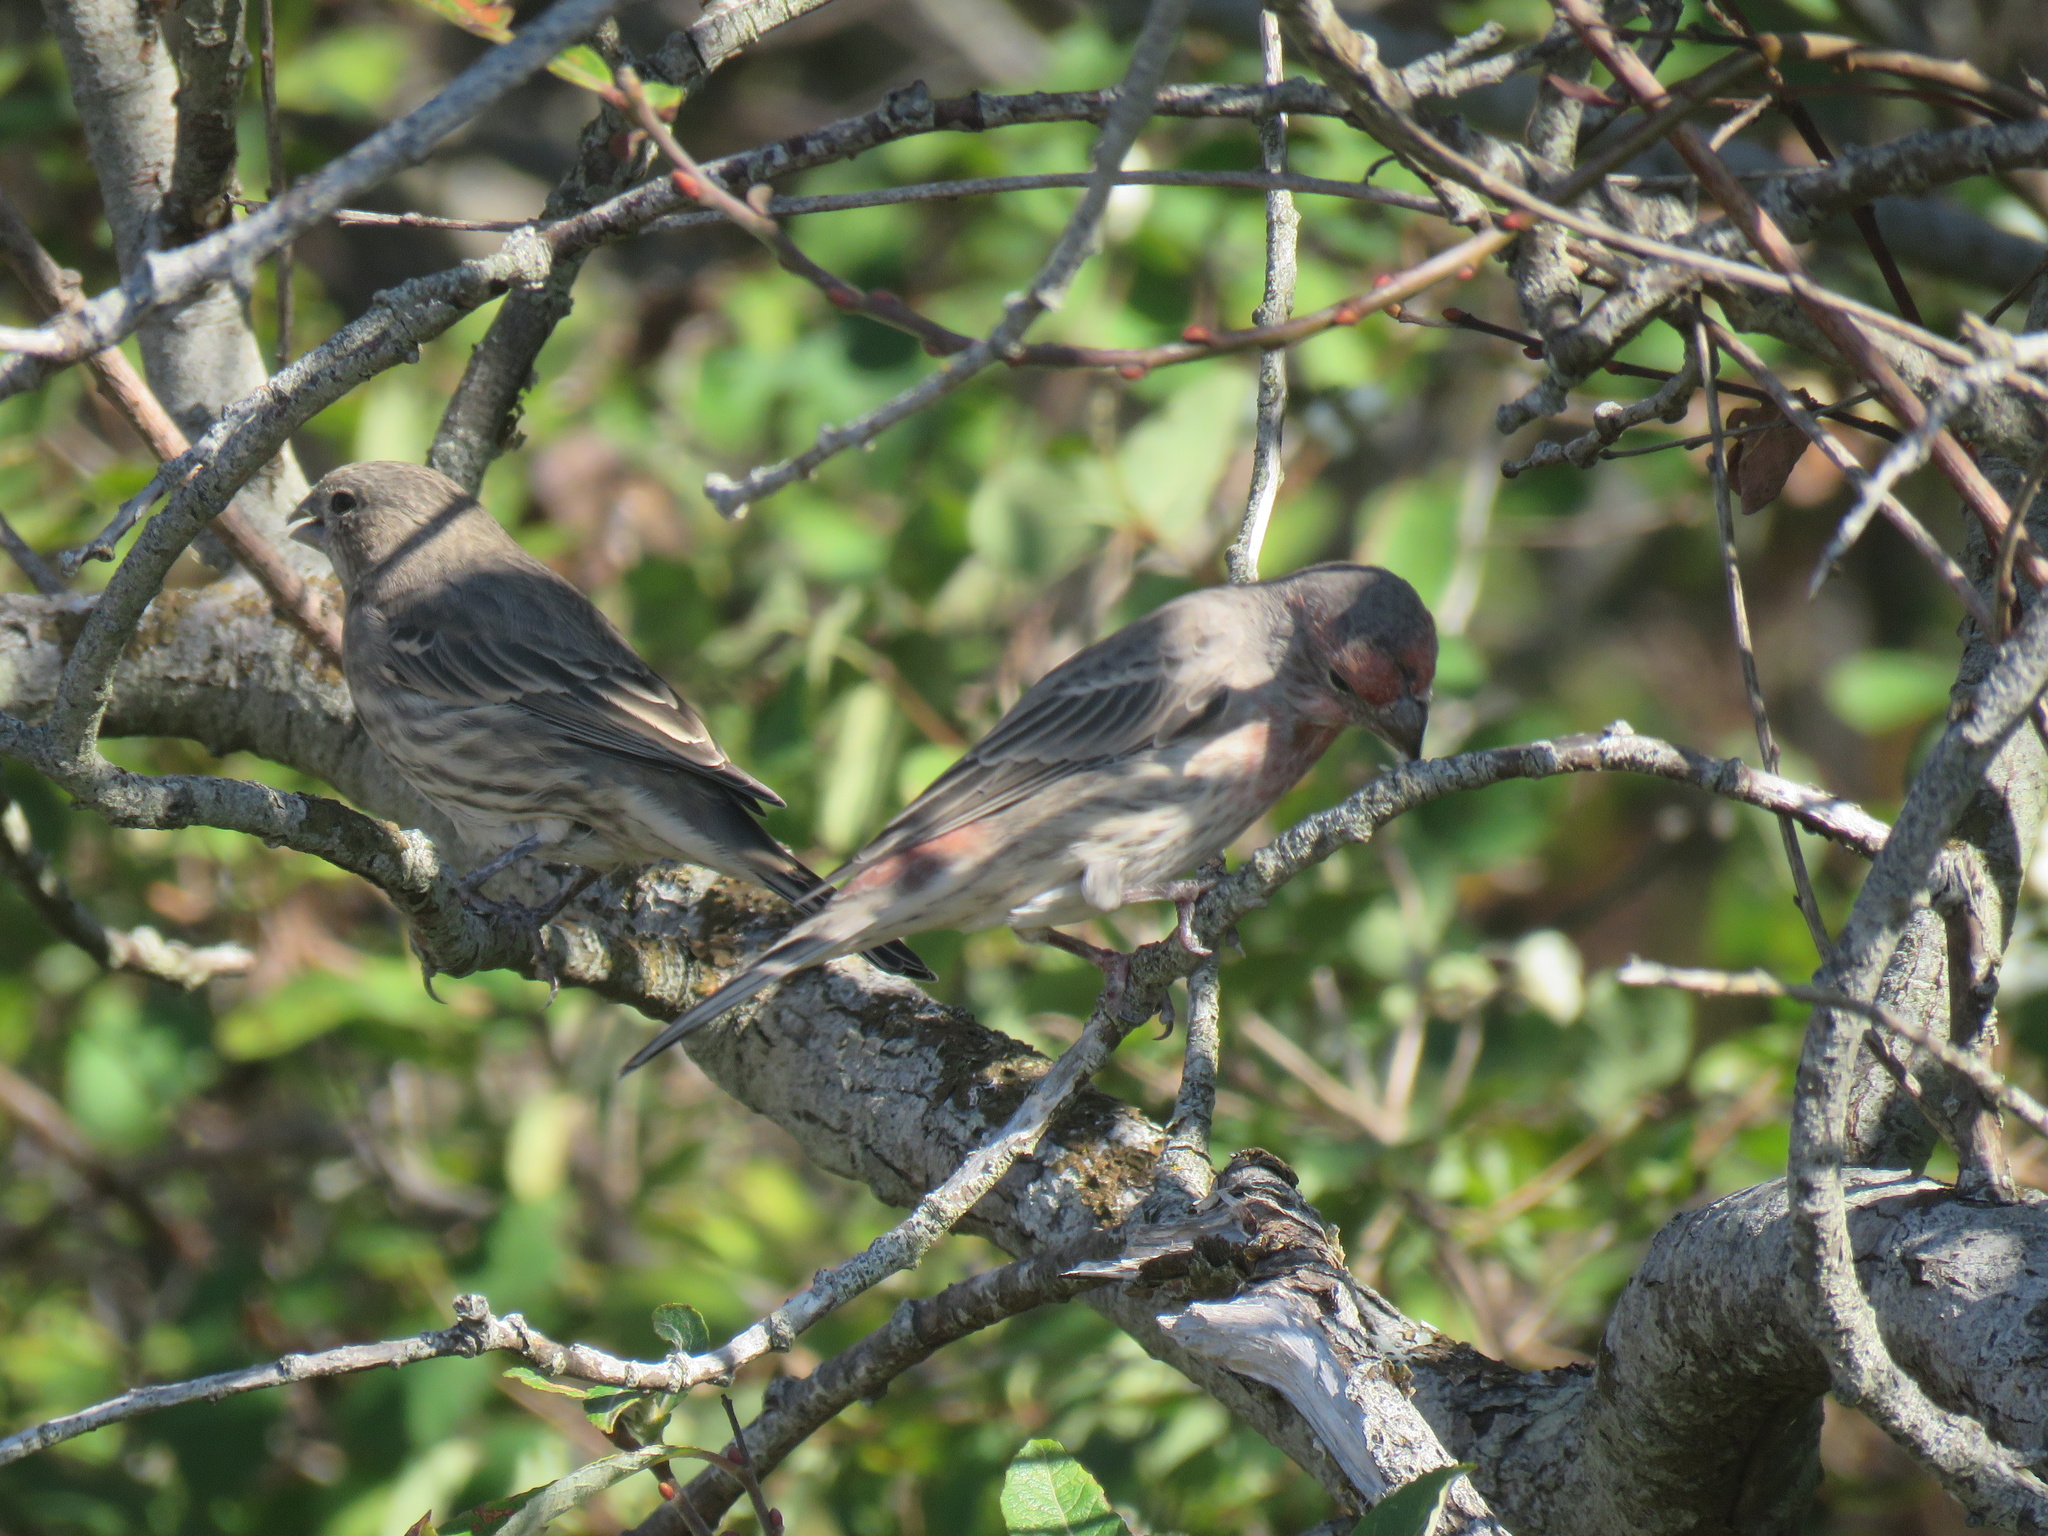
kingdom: Animalia
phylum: Chordata
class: Aves
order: Passeriformes
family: Fringillidae
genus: Haemorhous
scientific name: Haemorhous mexicanus
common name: House finch
